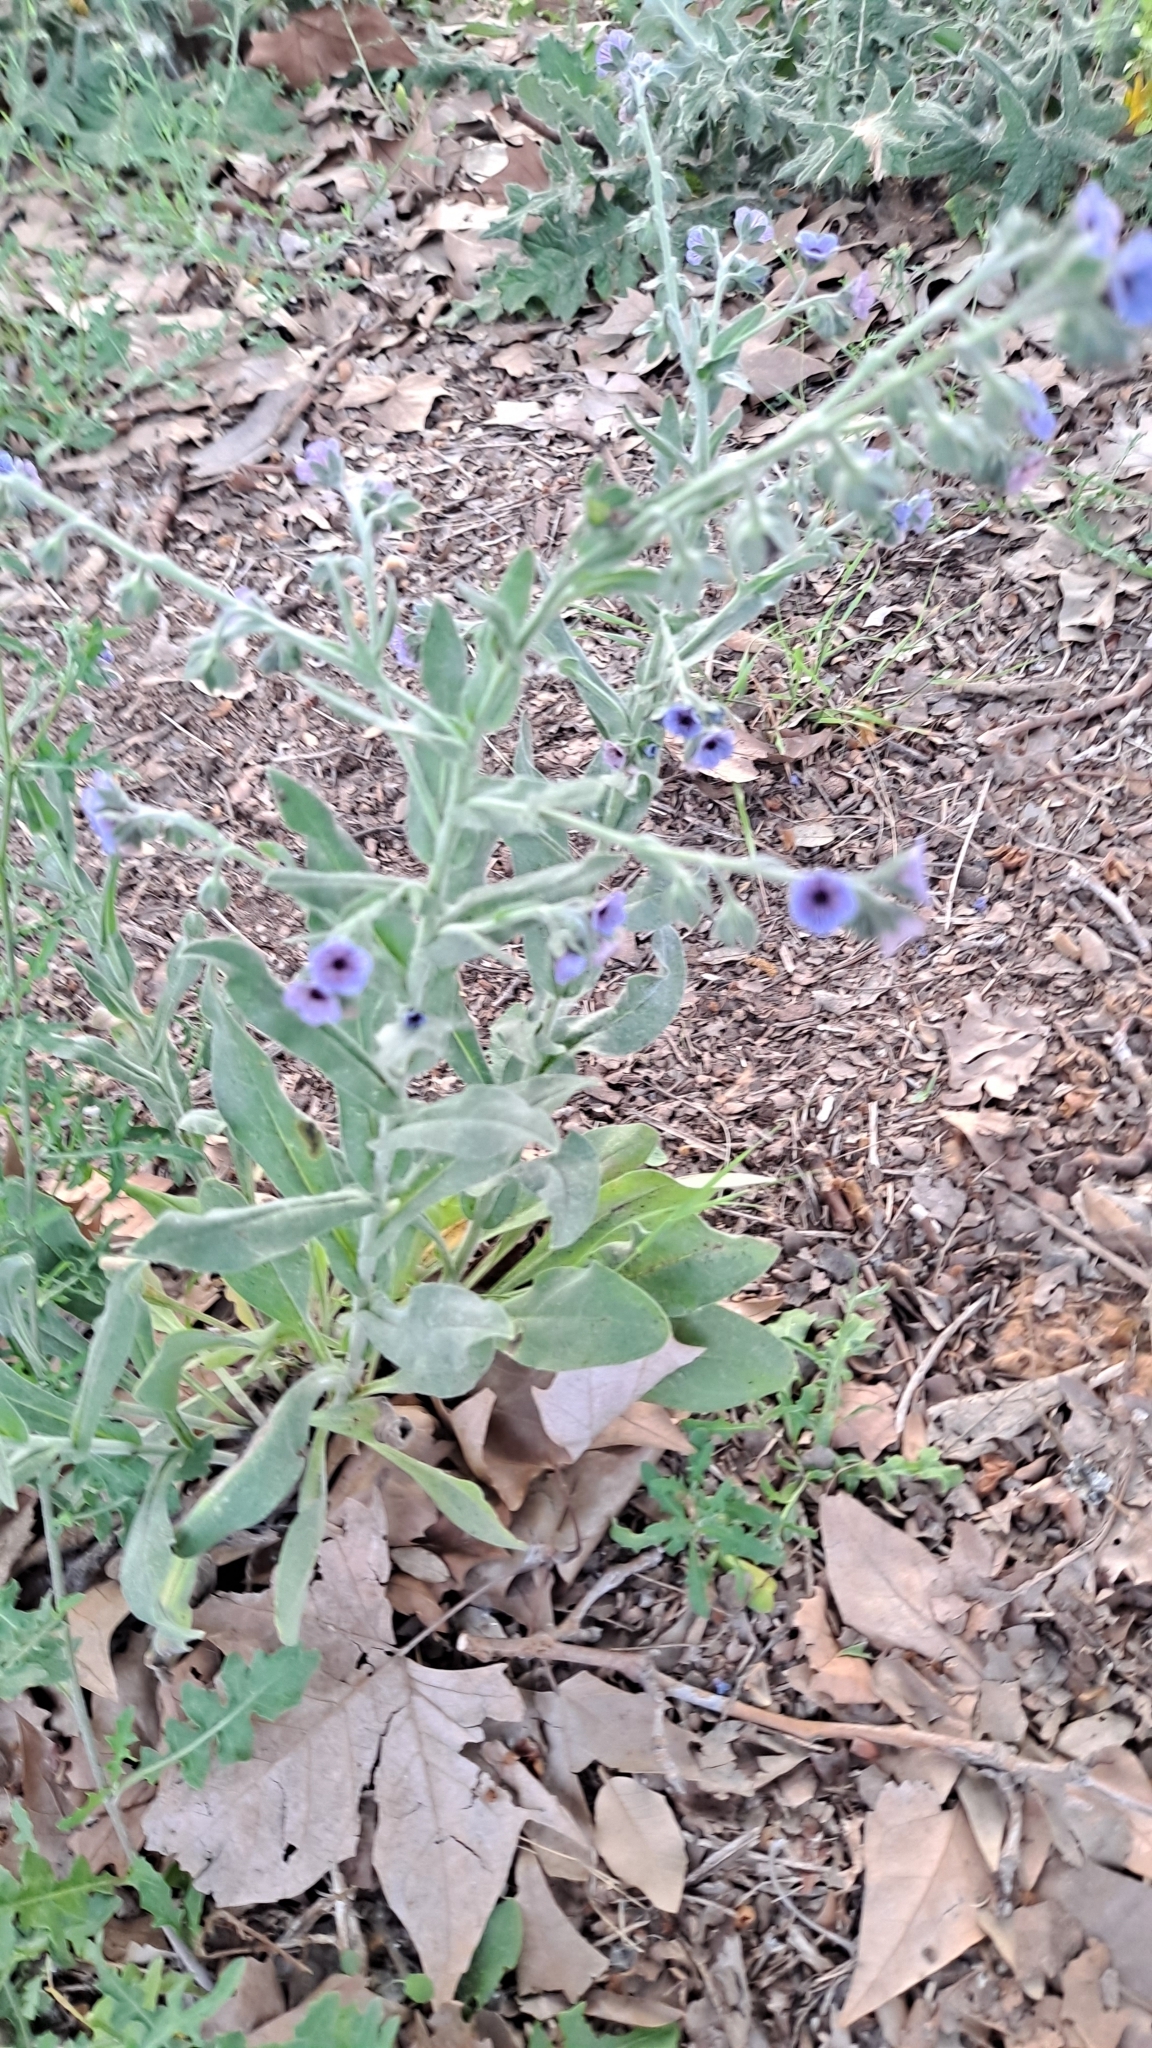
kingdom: Plantae
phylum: Tracheophyta
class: Magnoliopsida
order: Boraginales
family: Boraginaceae
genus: Cynoglossum
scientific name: Cynoglossum creticum
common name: Blue hound's tongue
